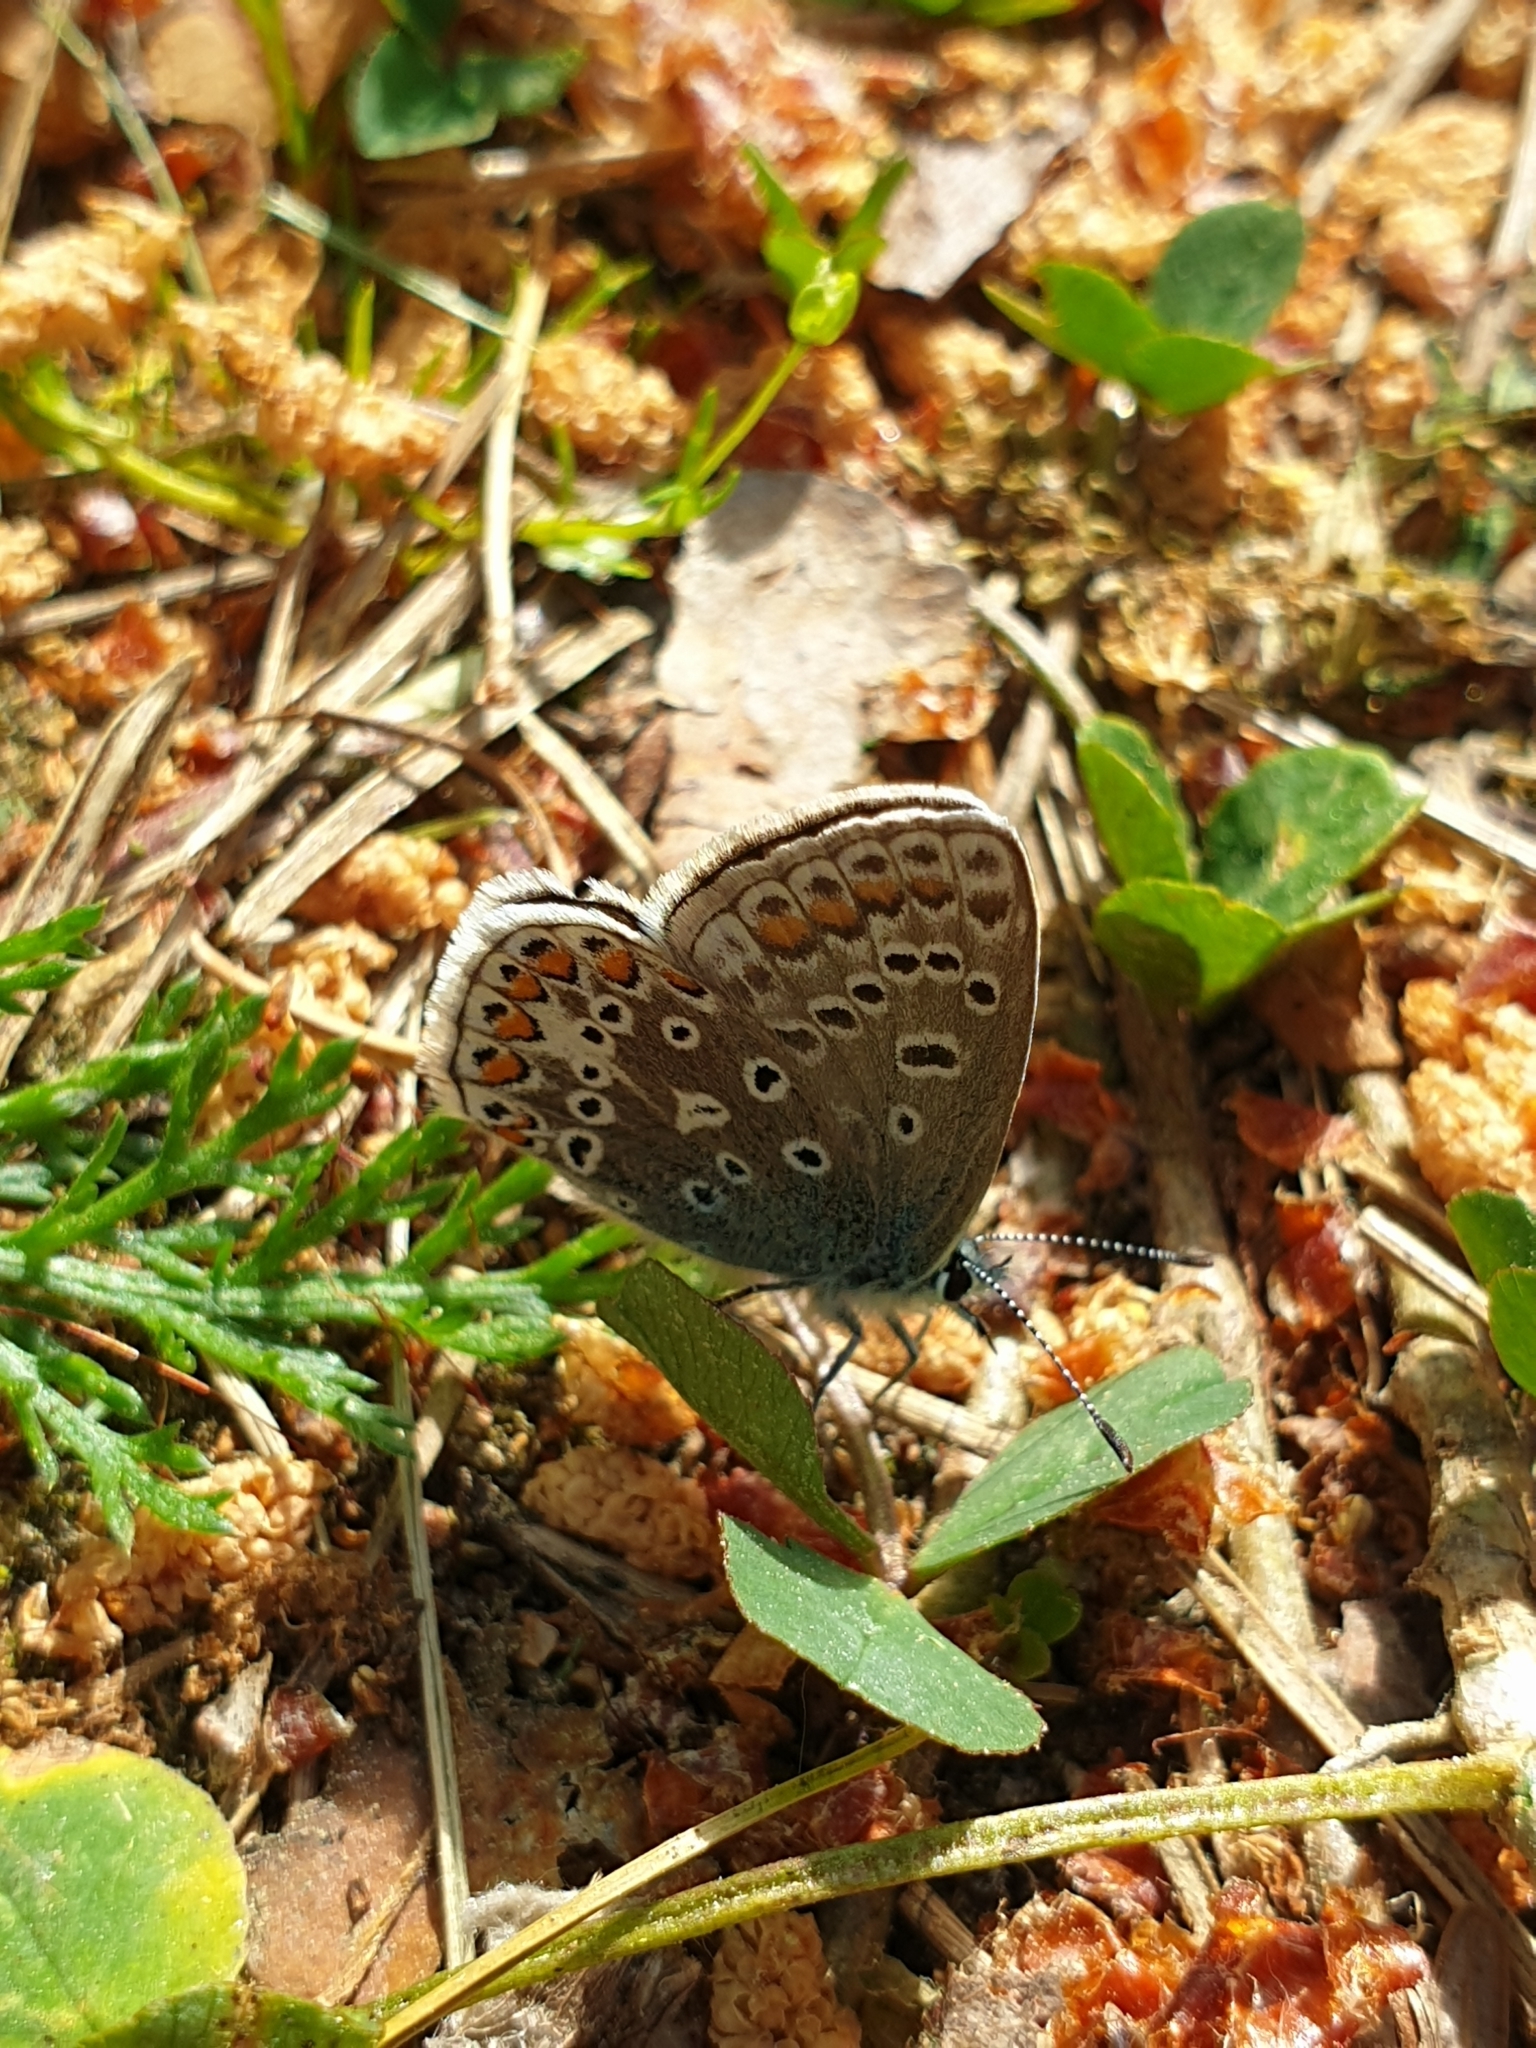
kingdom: Animalia
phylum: Arthropoda
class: Insecta
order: Lepidoptera
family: Lycaenidae
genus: Polyommatus
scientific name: Polyommatus icarus
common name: Common blue
